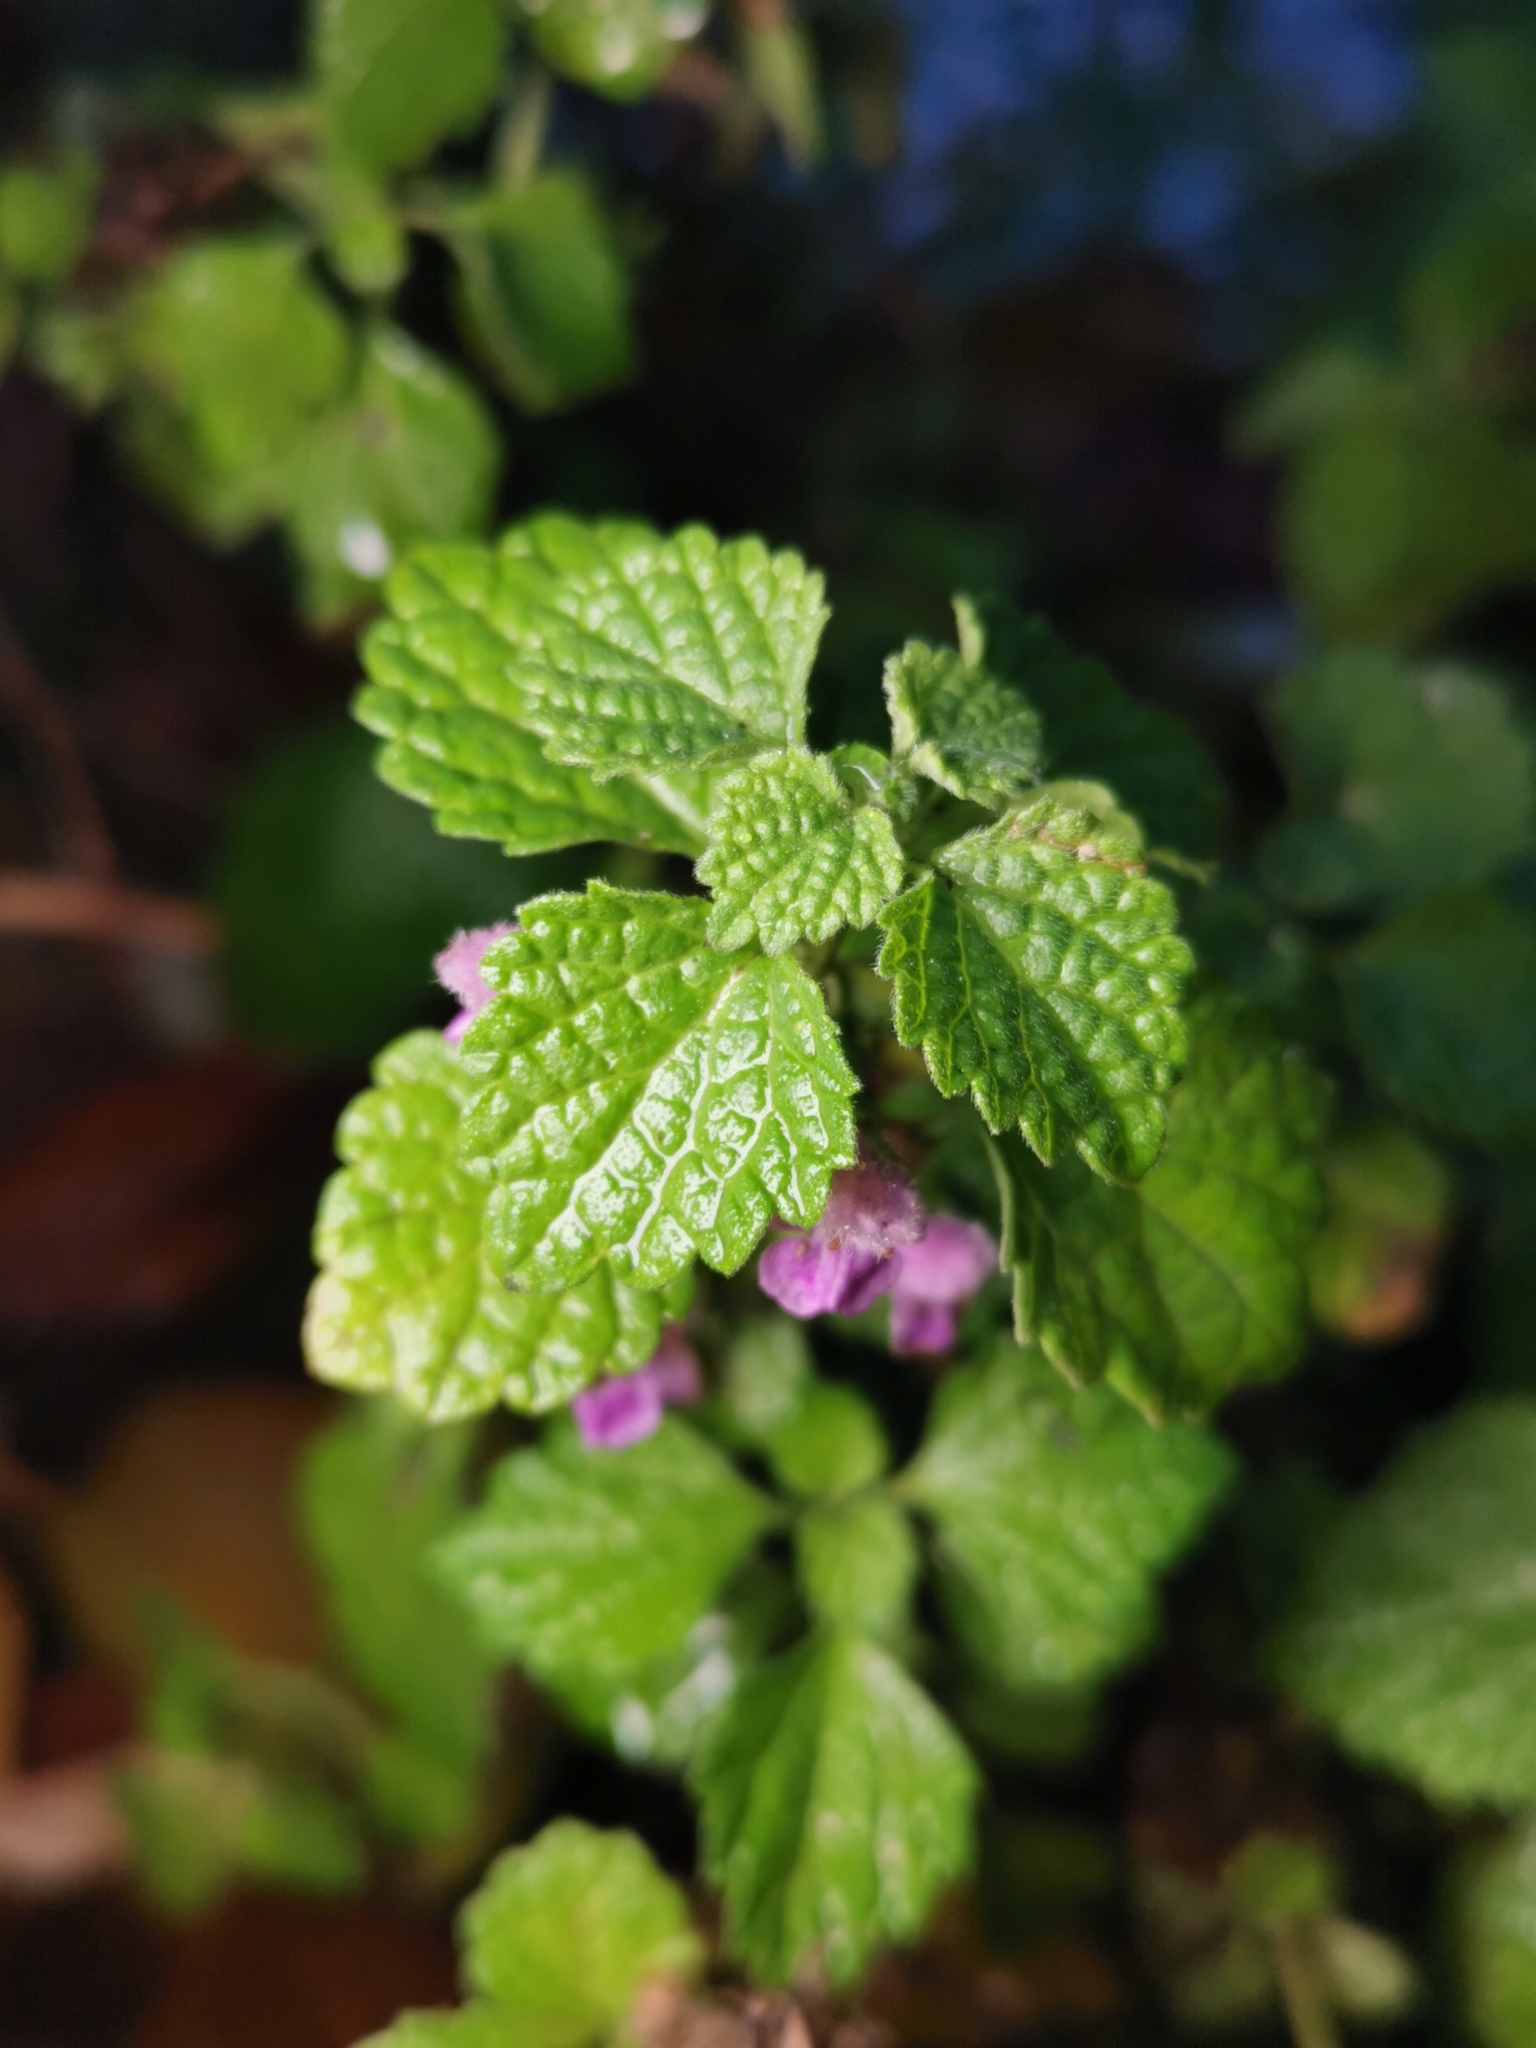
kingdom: Plantae
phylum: Tracheophyta
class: Magnoliopsida
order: Lamiales
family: Lamiaceae
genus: Ballota
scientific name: Ballota nigra
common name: Black horehound
